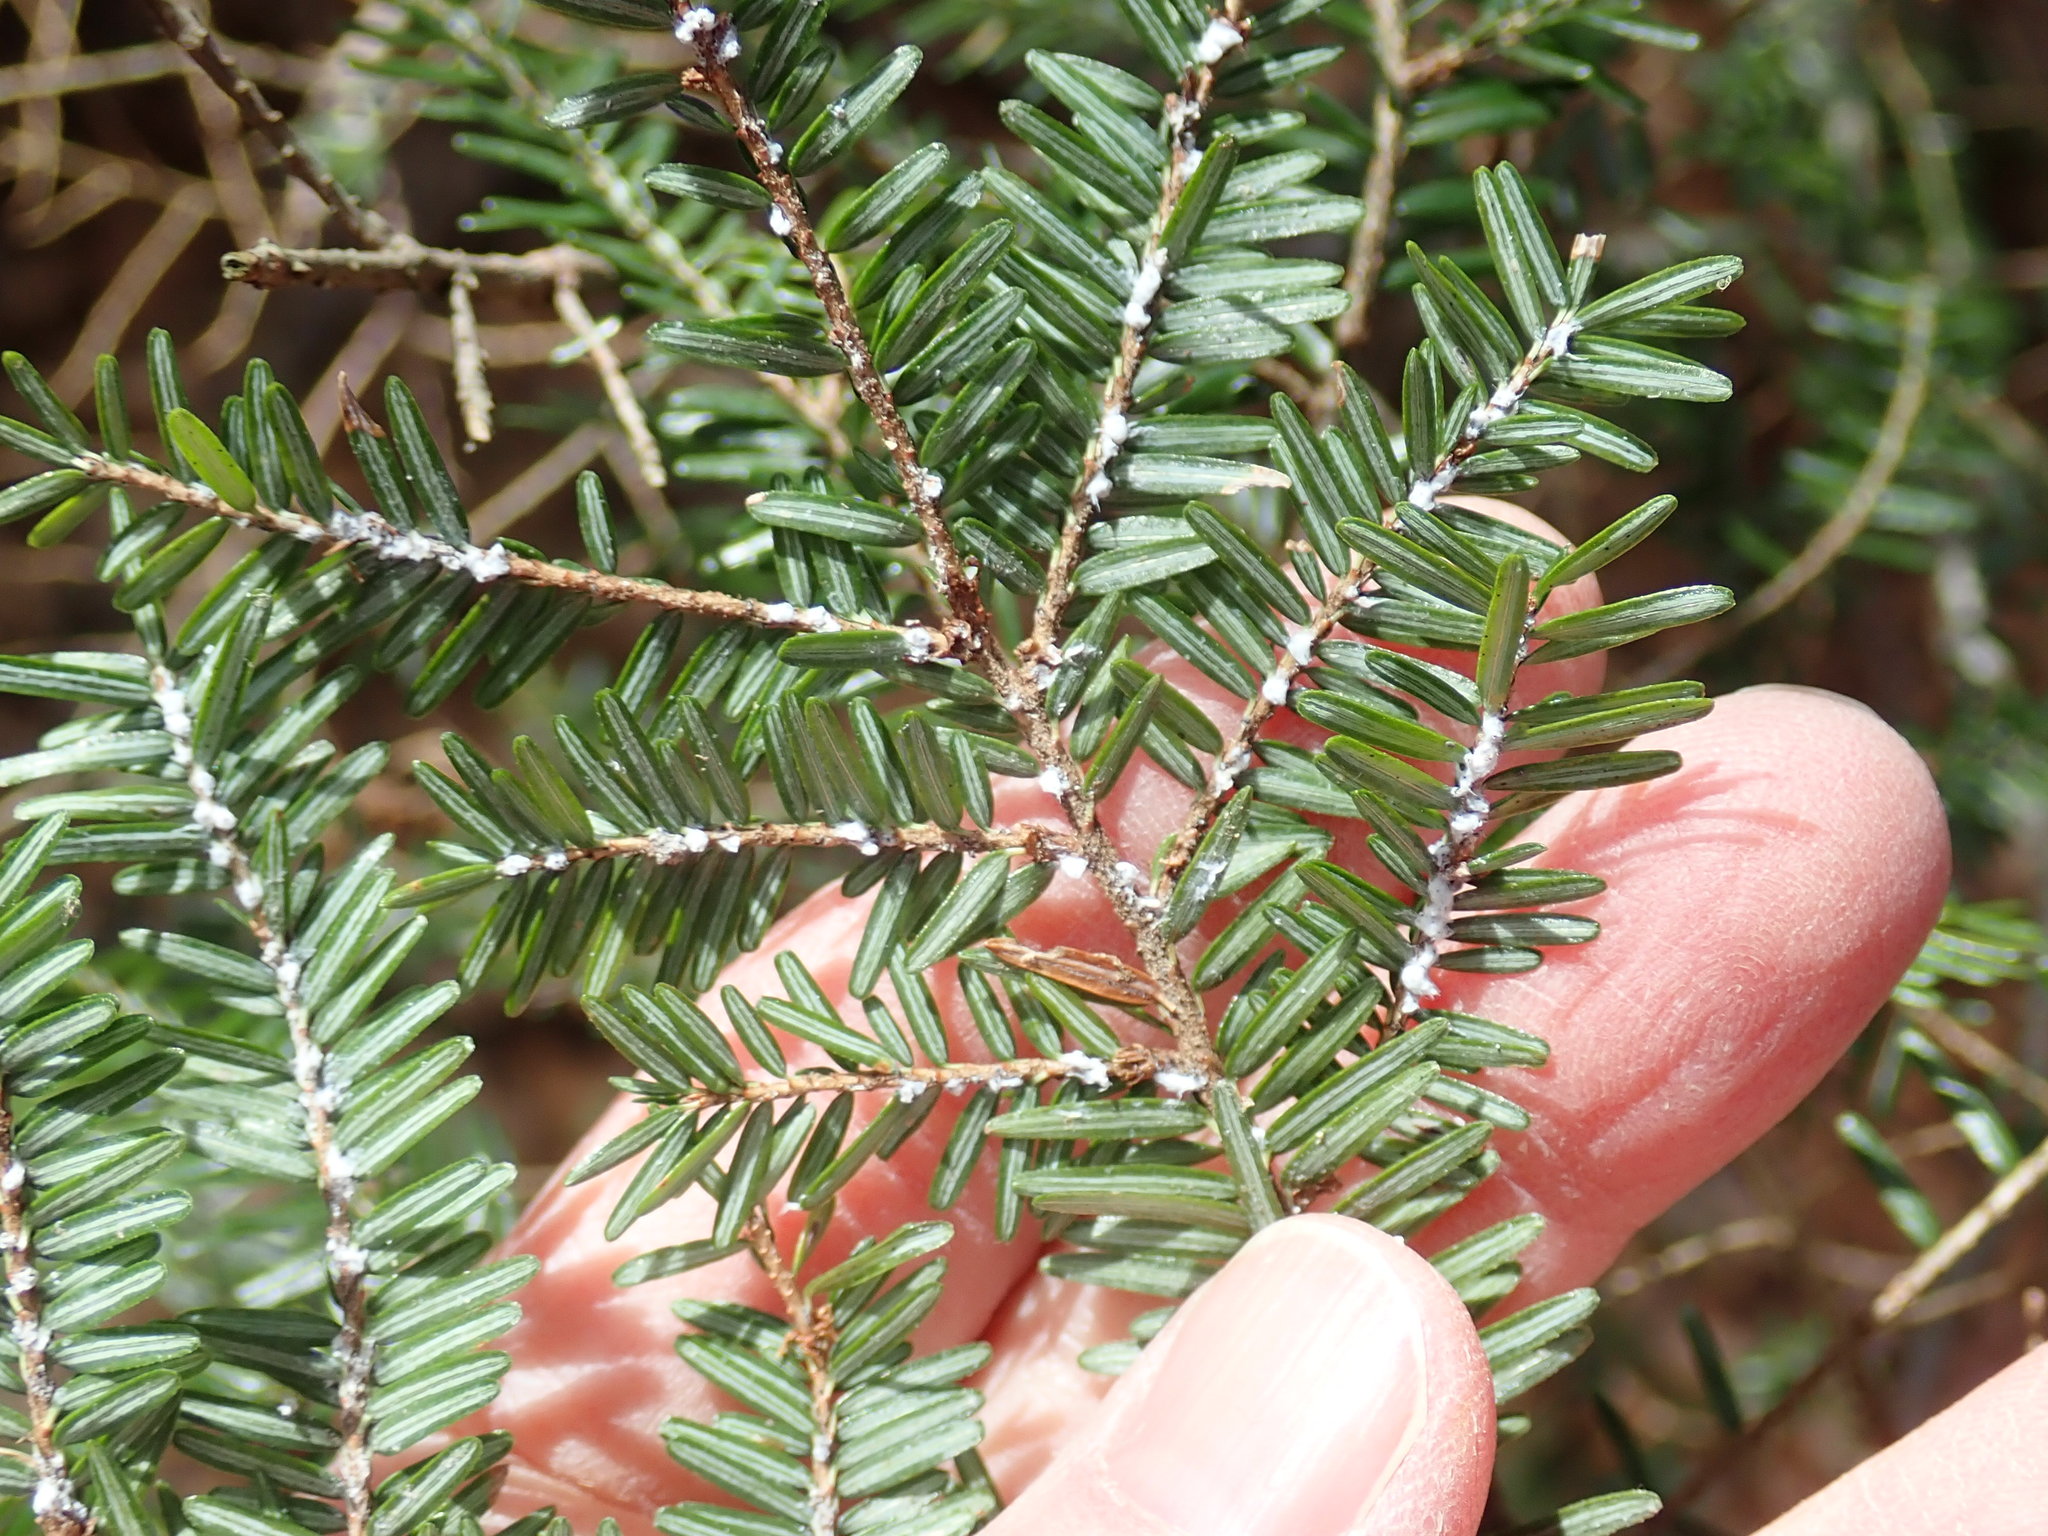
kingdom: Animalia
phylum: Arthropoda
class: Insecta
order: Hemiptera
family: Adelgidae
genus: Adelges
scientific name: Adelges tsugae
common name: Hemlock woolly adelgid
